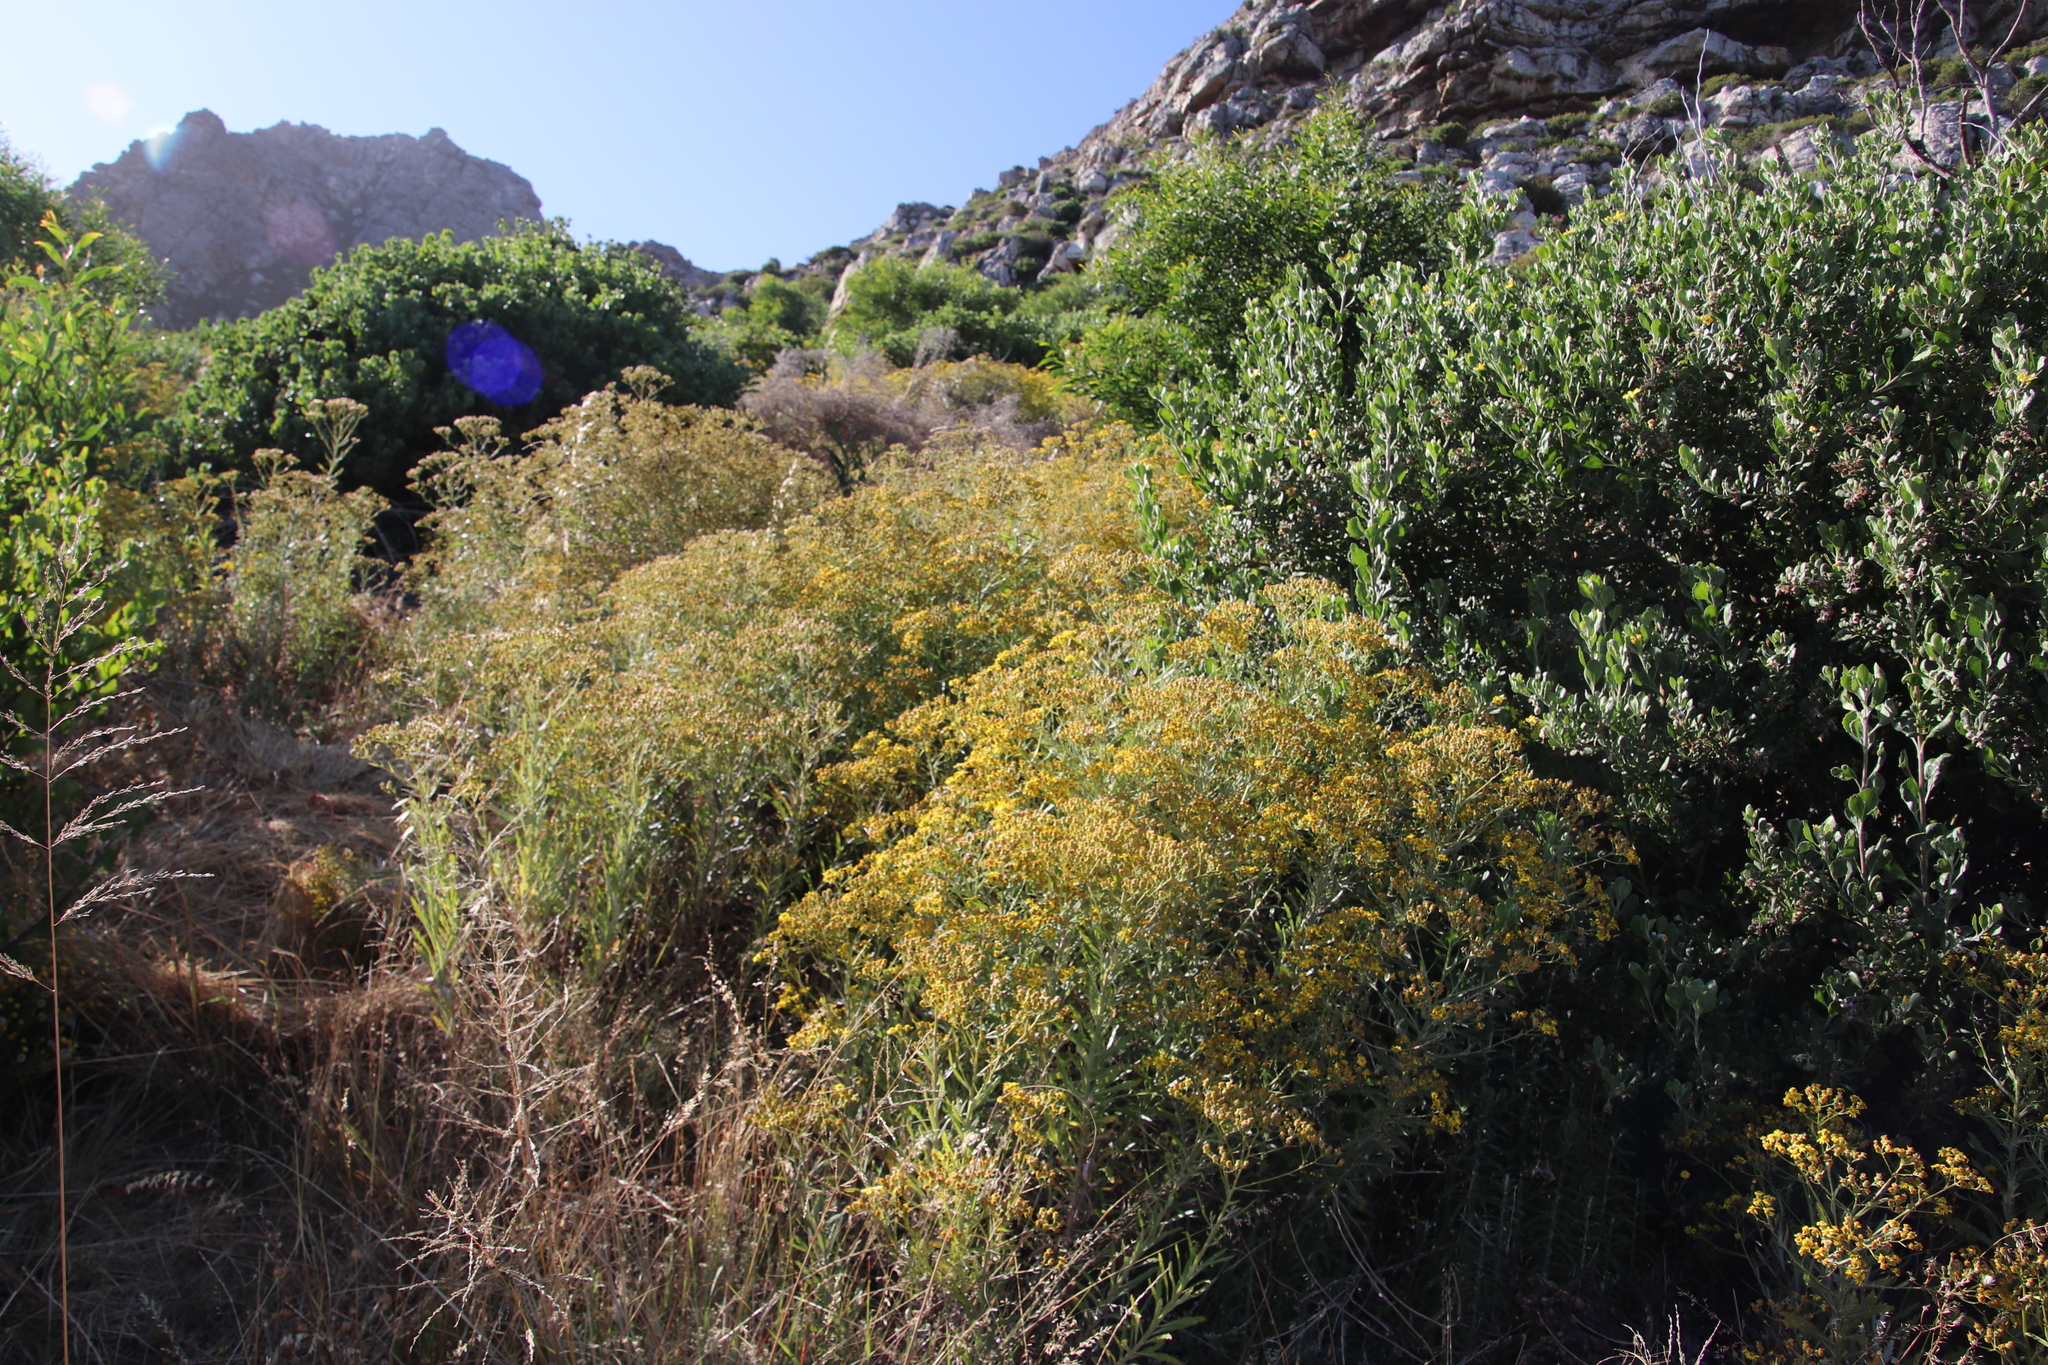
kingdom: Plantae
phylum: Tracheophyta
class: Magnoliopsida
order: Asterales
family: Asteraceae
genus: Senecio
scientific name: Senecio pterophorus
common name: Shoddy ragwort
